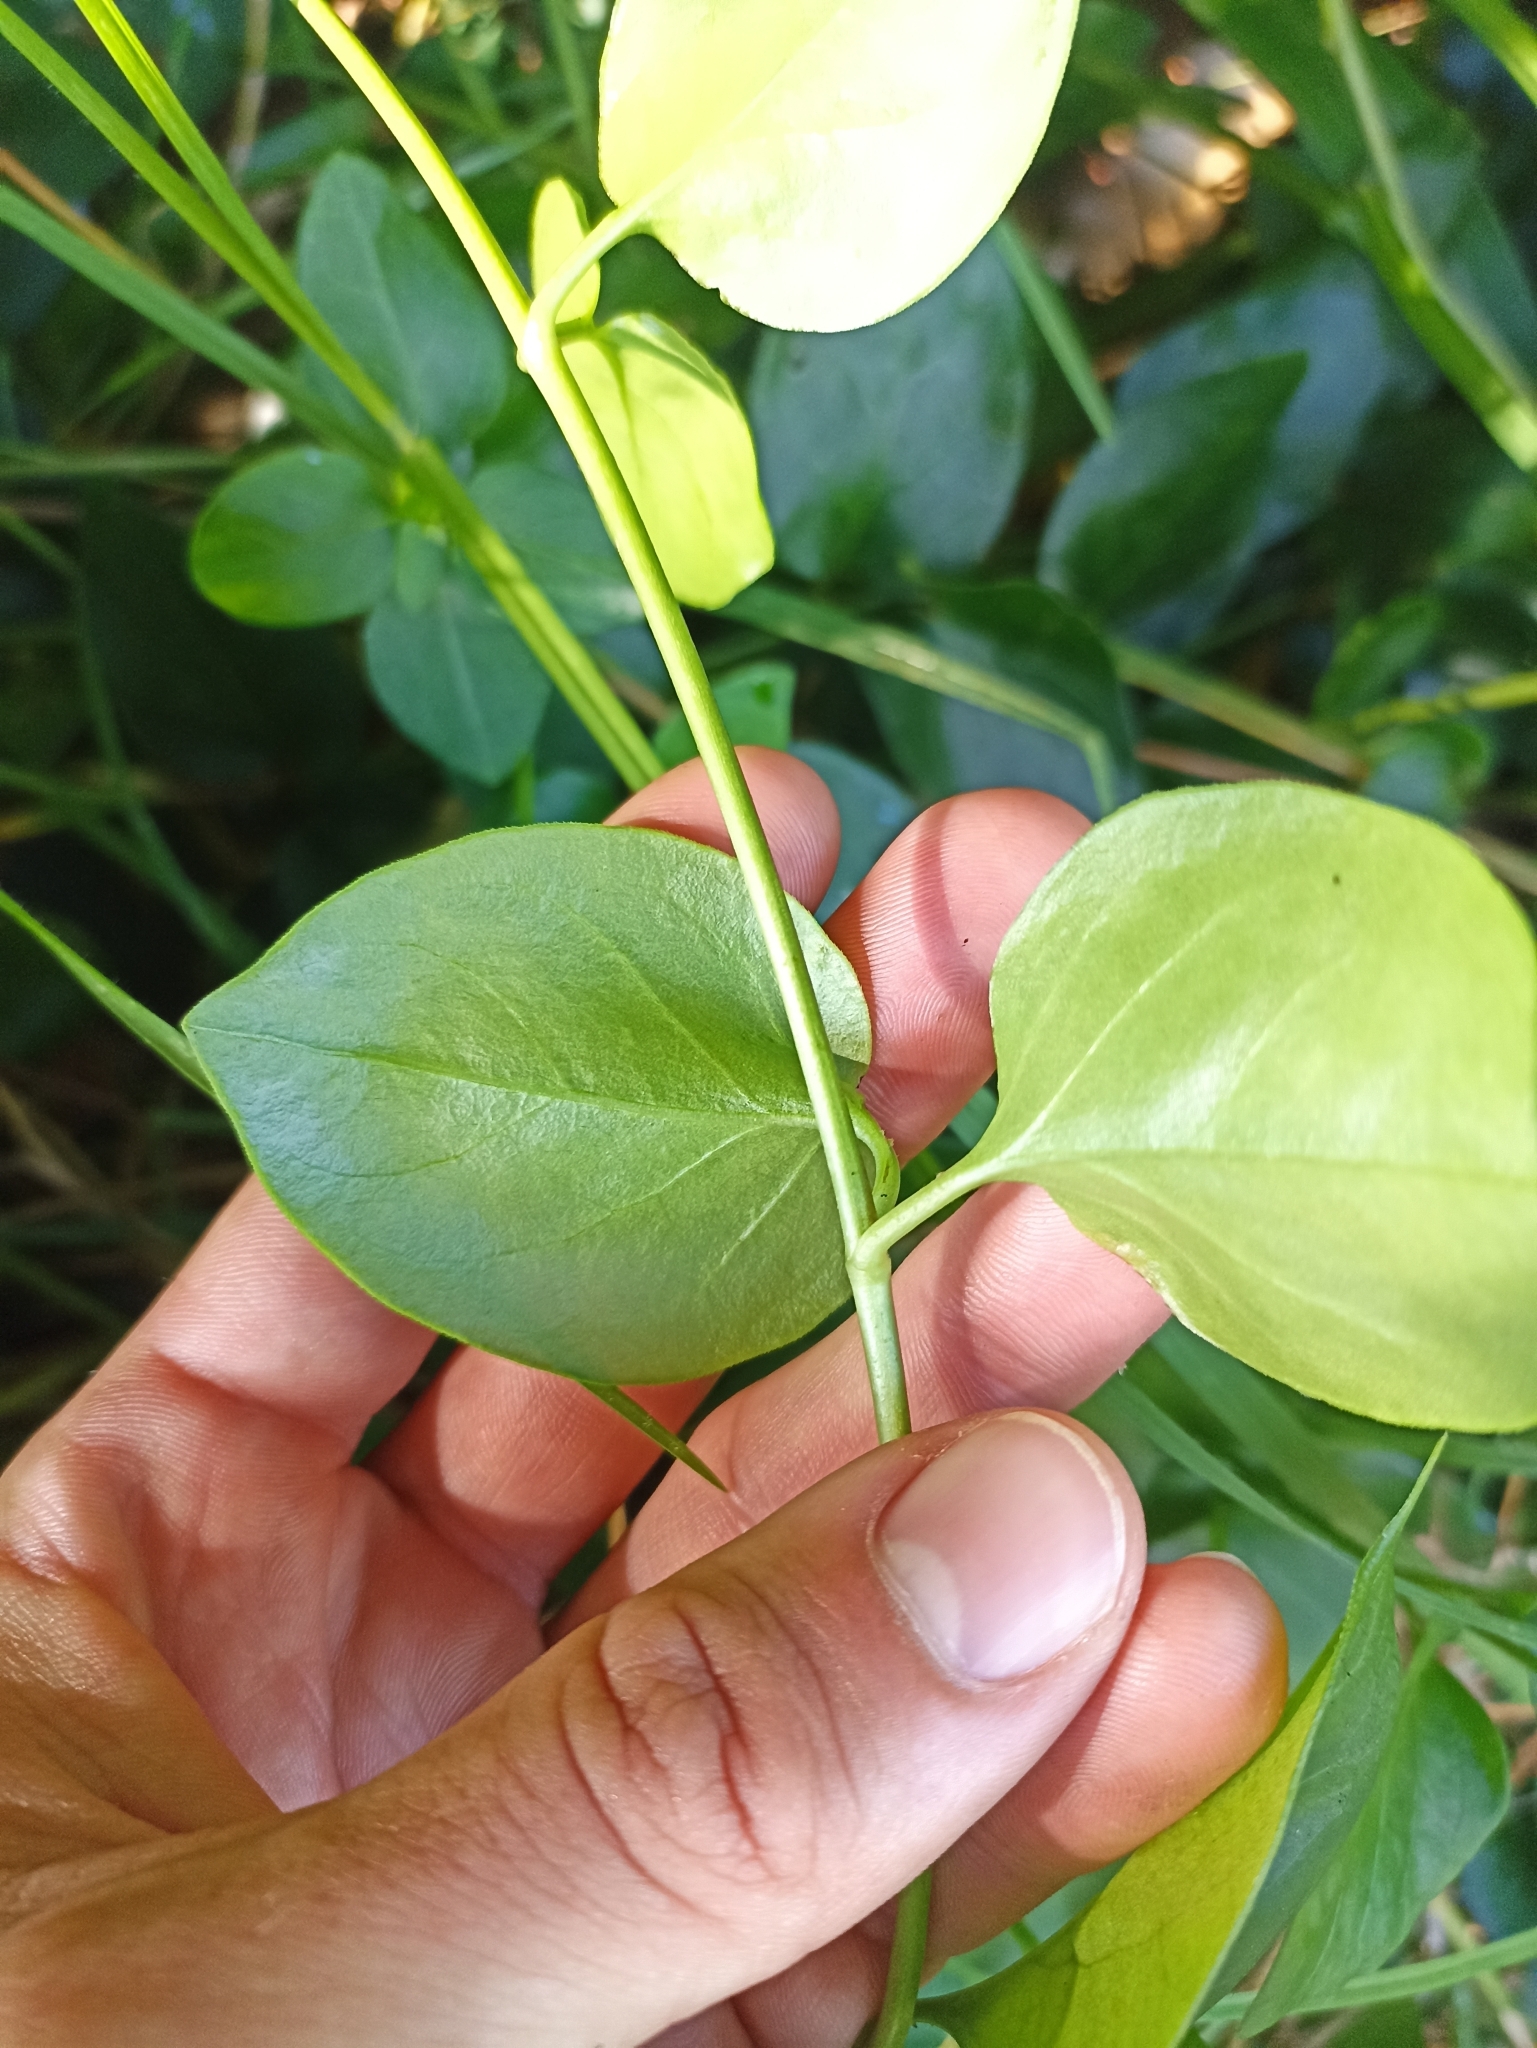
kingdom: Plantae
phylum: Tracheophyta
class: Magnoliopsida
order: Gentianales
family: Apocynaceae
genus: Vinca
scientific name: Vinca major
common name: Greater periwinkle
